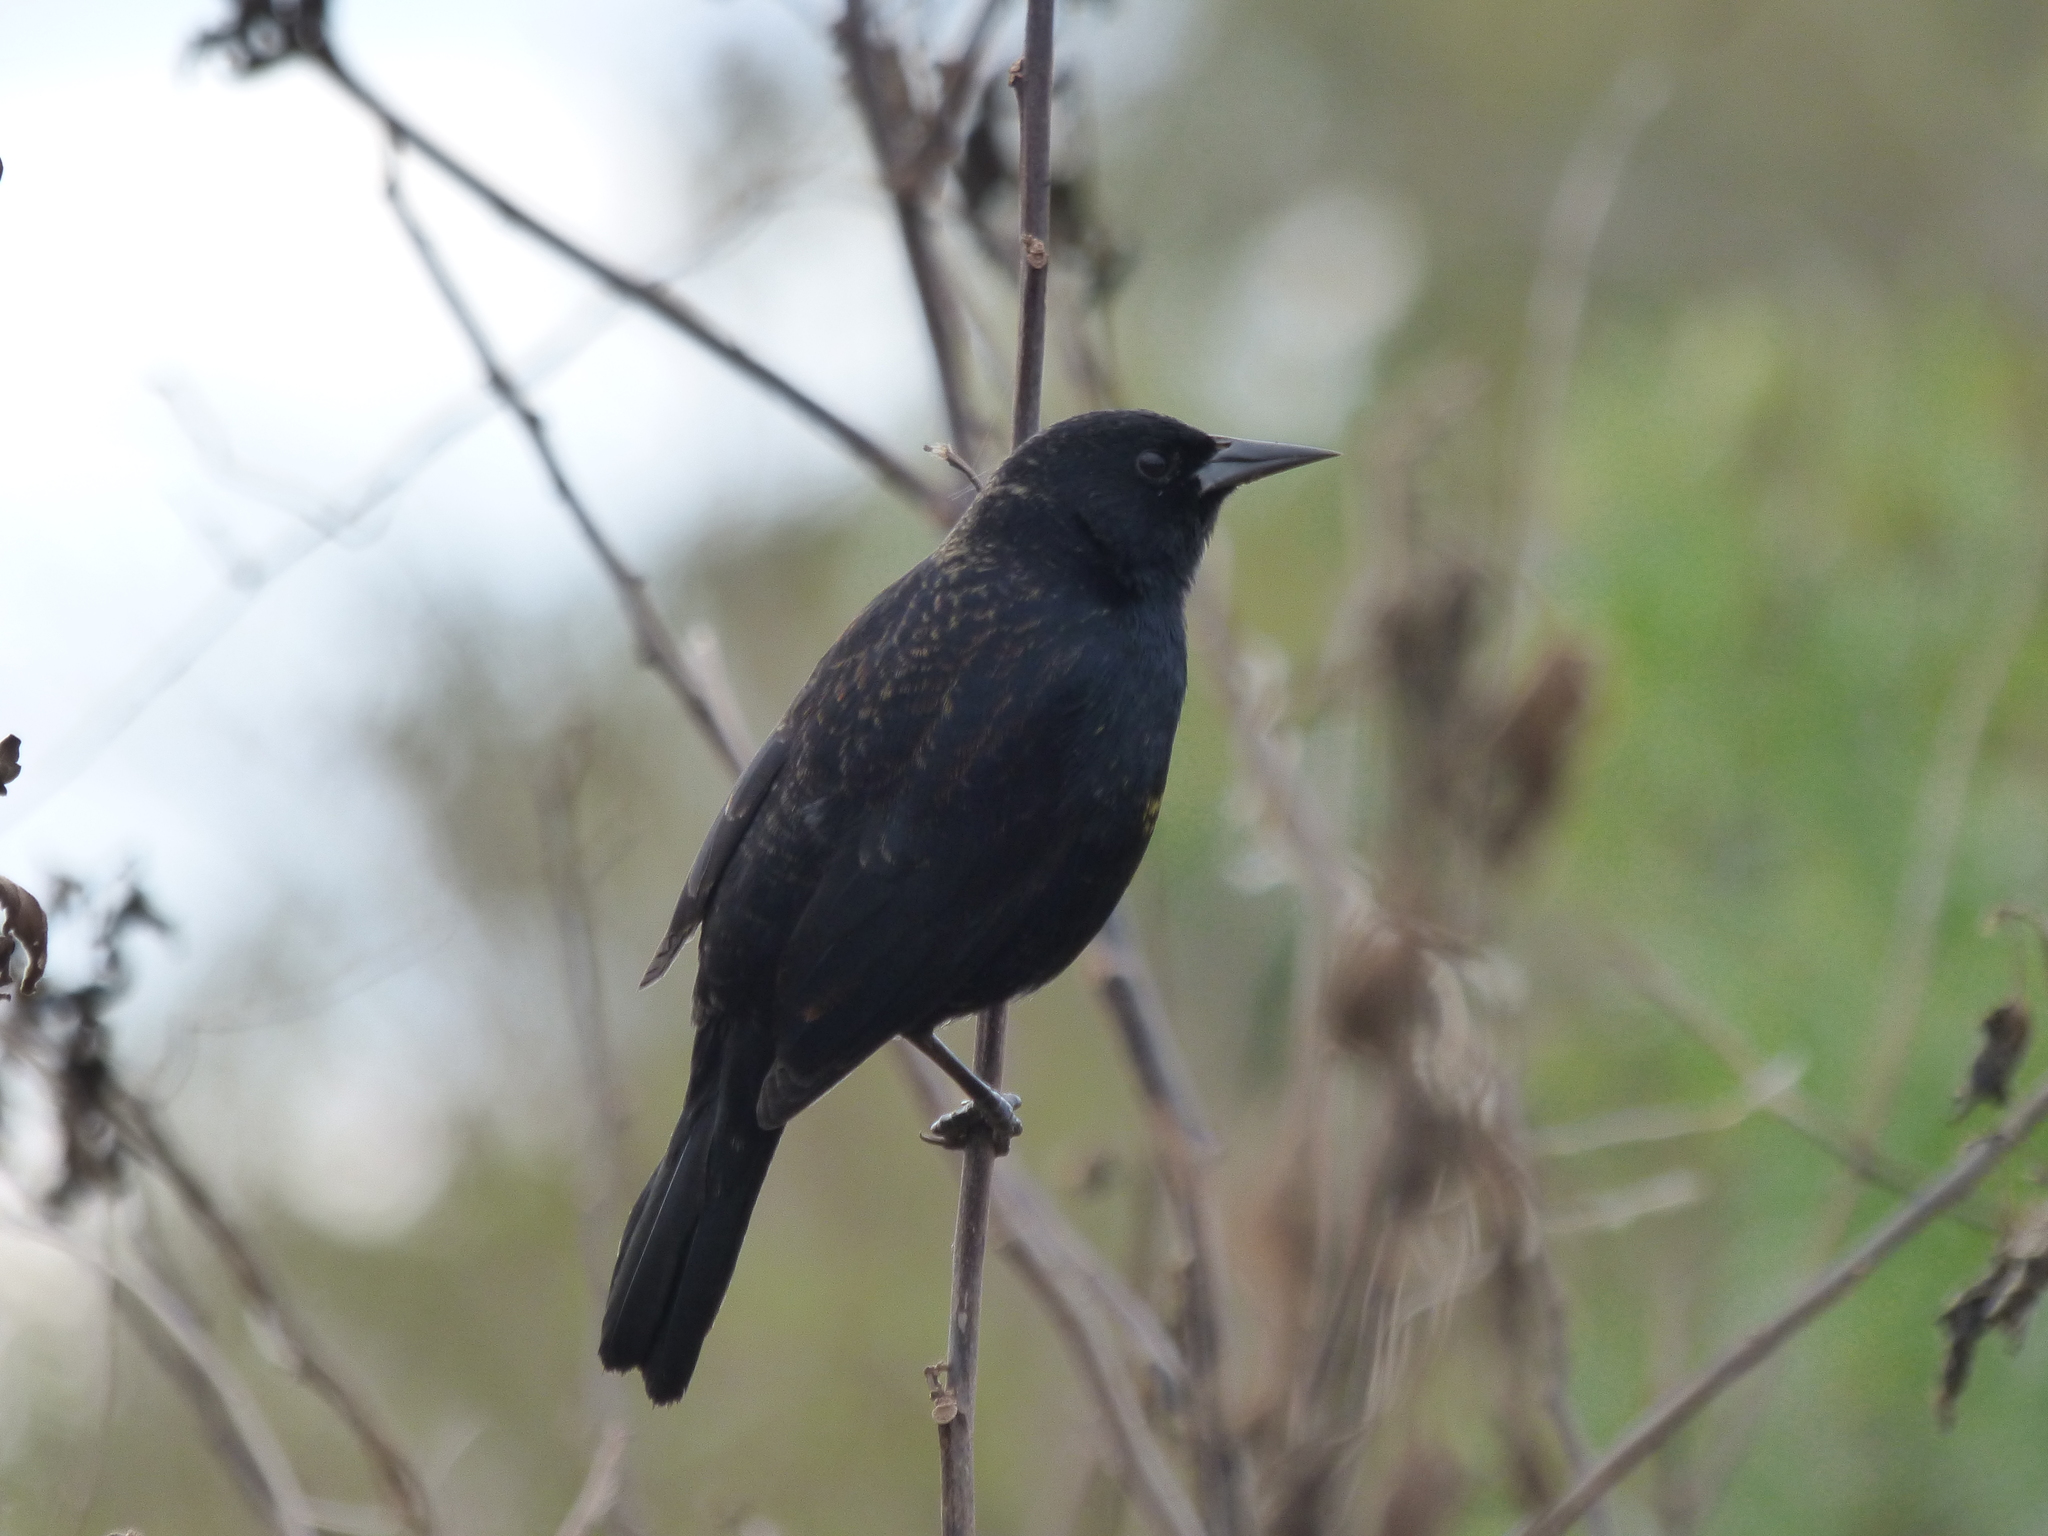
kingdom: Animalia
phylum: Chordata
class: Aves
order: Passeriformes
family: Icteridae
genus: Agelasticus
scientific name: Agelasticus cyanopus
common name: Unicolored blackbird
